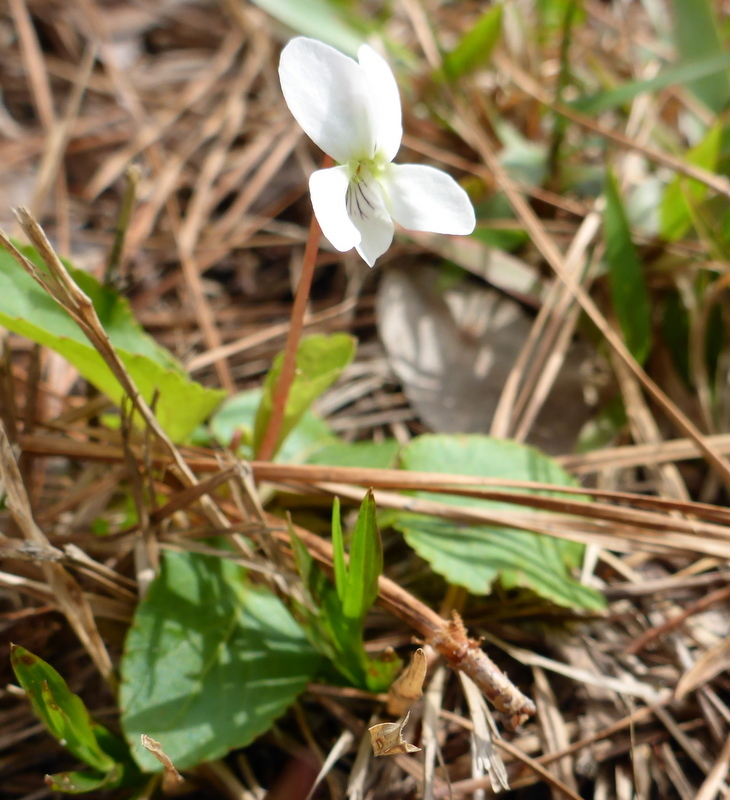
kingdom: Plantae
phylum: Tracheophyta
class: Magnoliopsida
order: Malpighiales
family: Violaceae
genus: Viola
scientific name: Viola primulifolia
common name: Primrose-leaf violet
